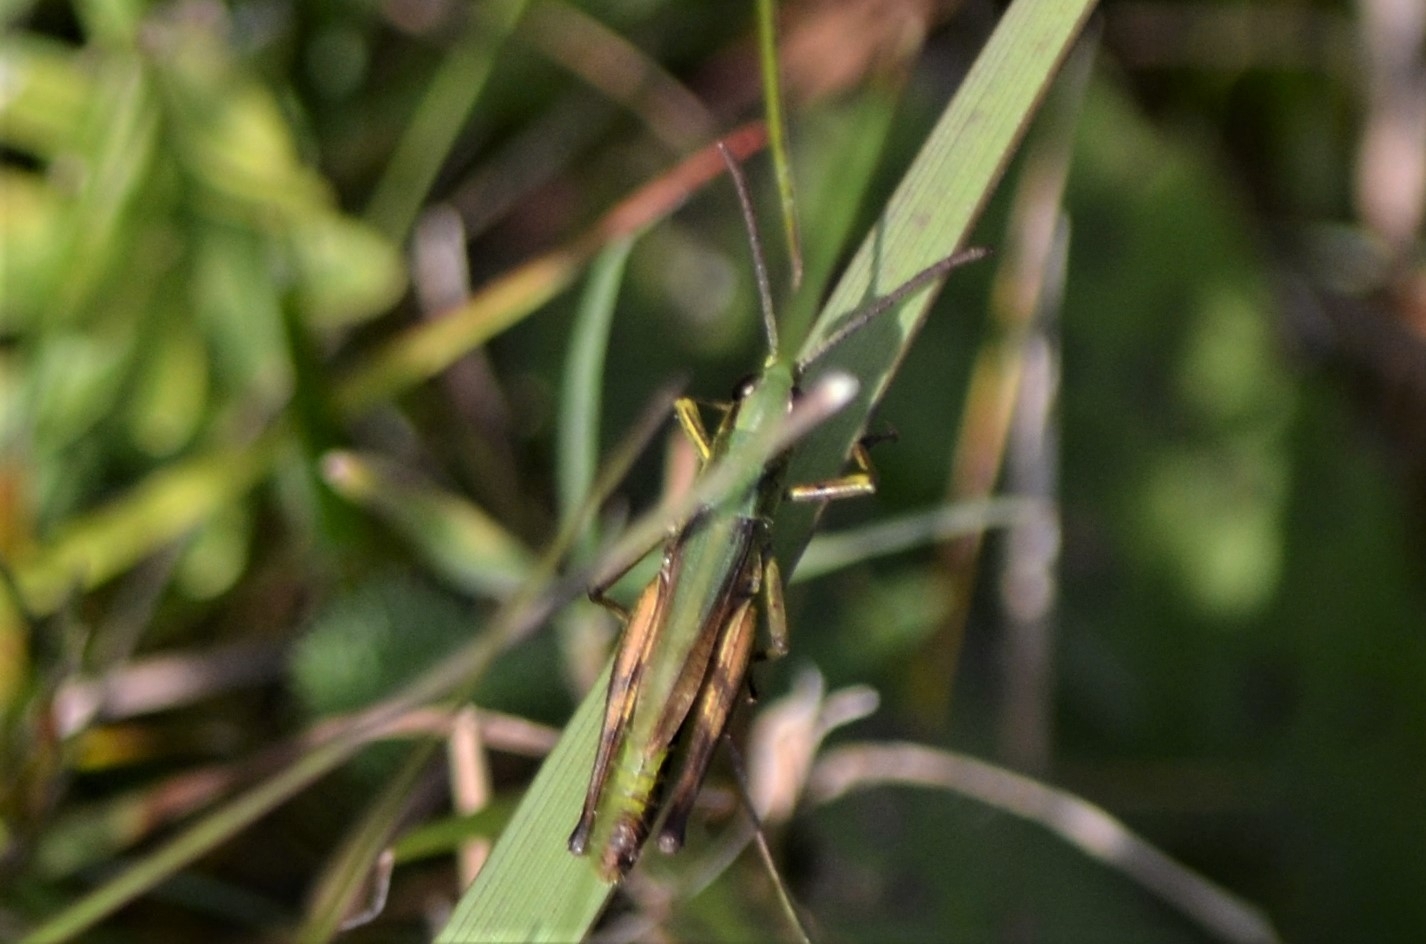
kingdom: Animalia
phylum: Arthropoda
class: Insecta
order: Orthoptera
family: Acrididae
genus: Pseudochorthippus
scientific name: Pseudochorthippus parallelus
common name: Meadow grasshopper
